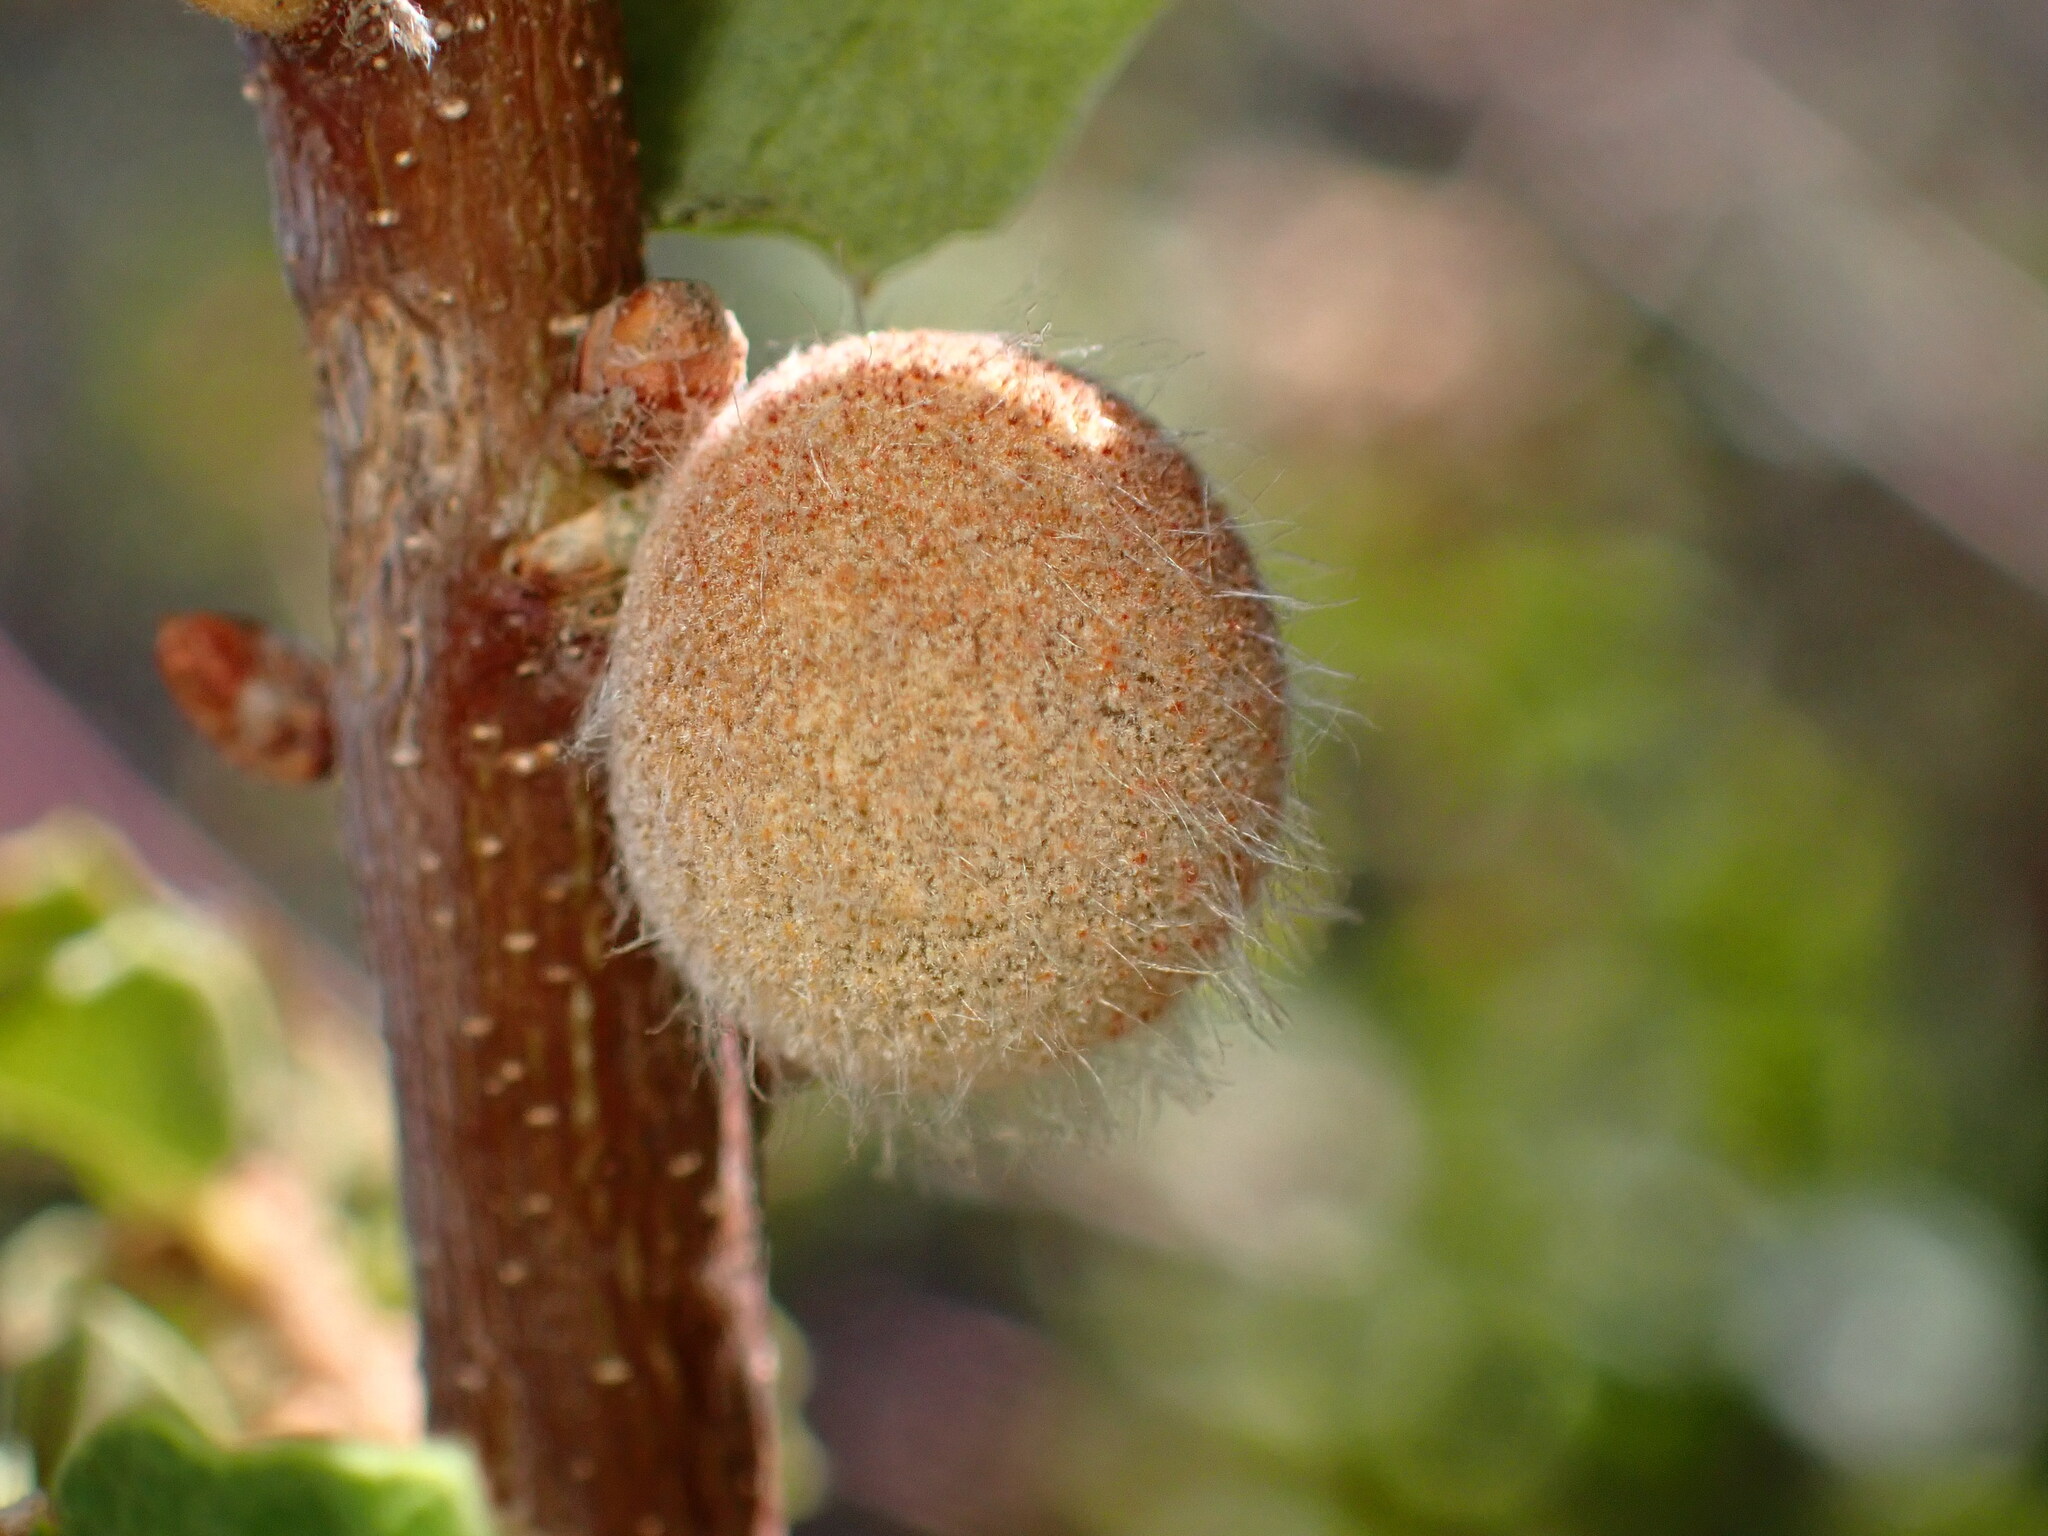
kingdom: Animalia
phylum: Arthropoda
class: Insecta
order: Hymenoptera
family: Cynipidae
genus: Burnettweldia
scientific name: Burnettweldia
